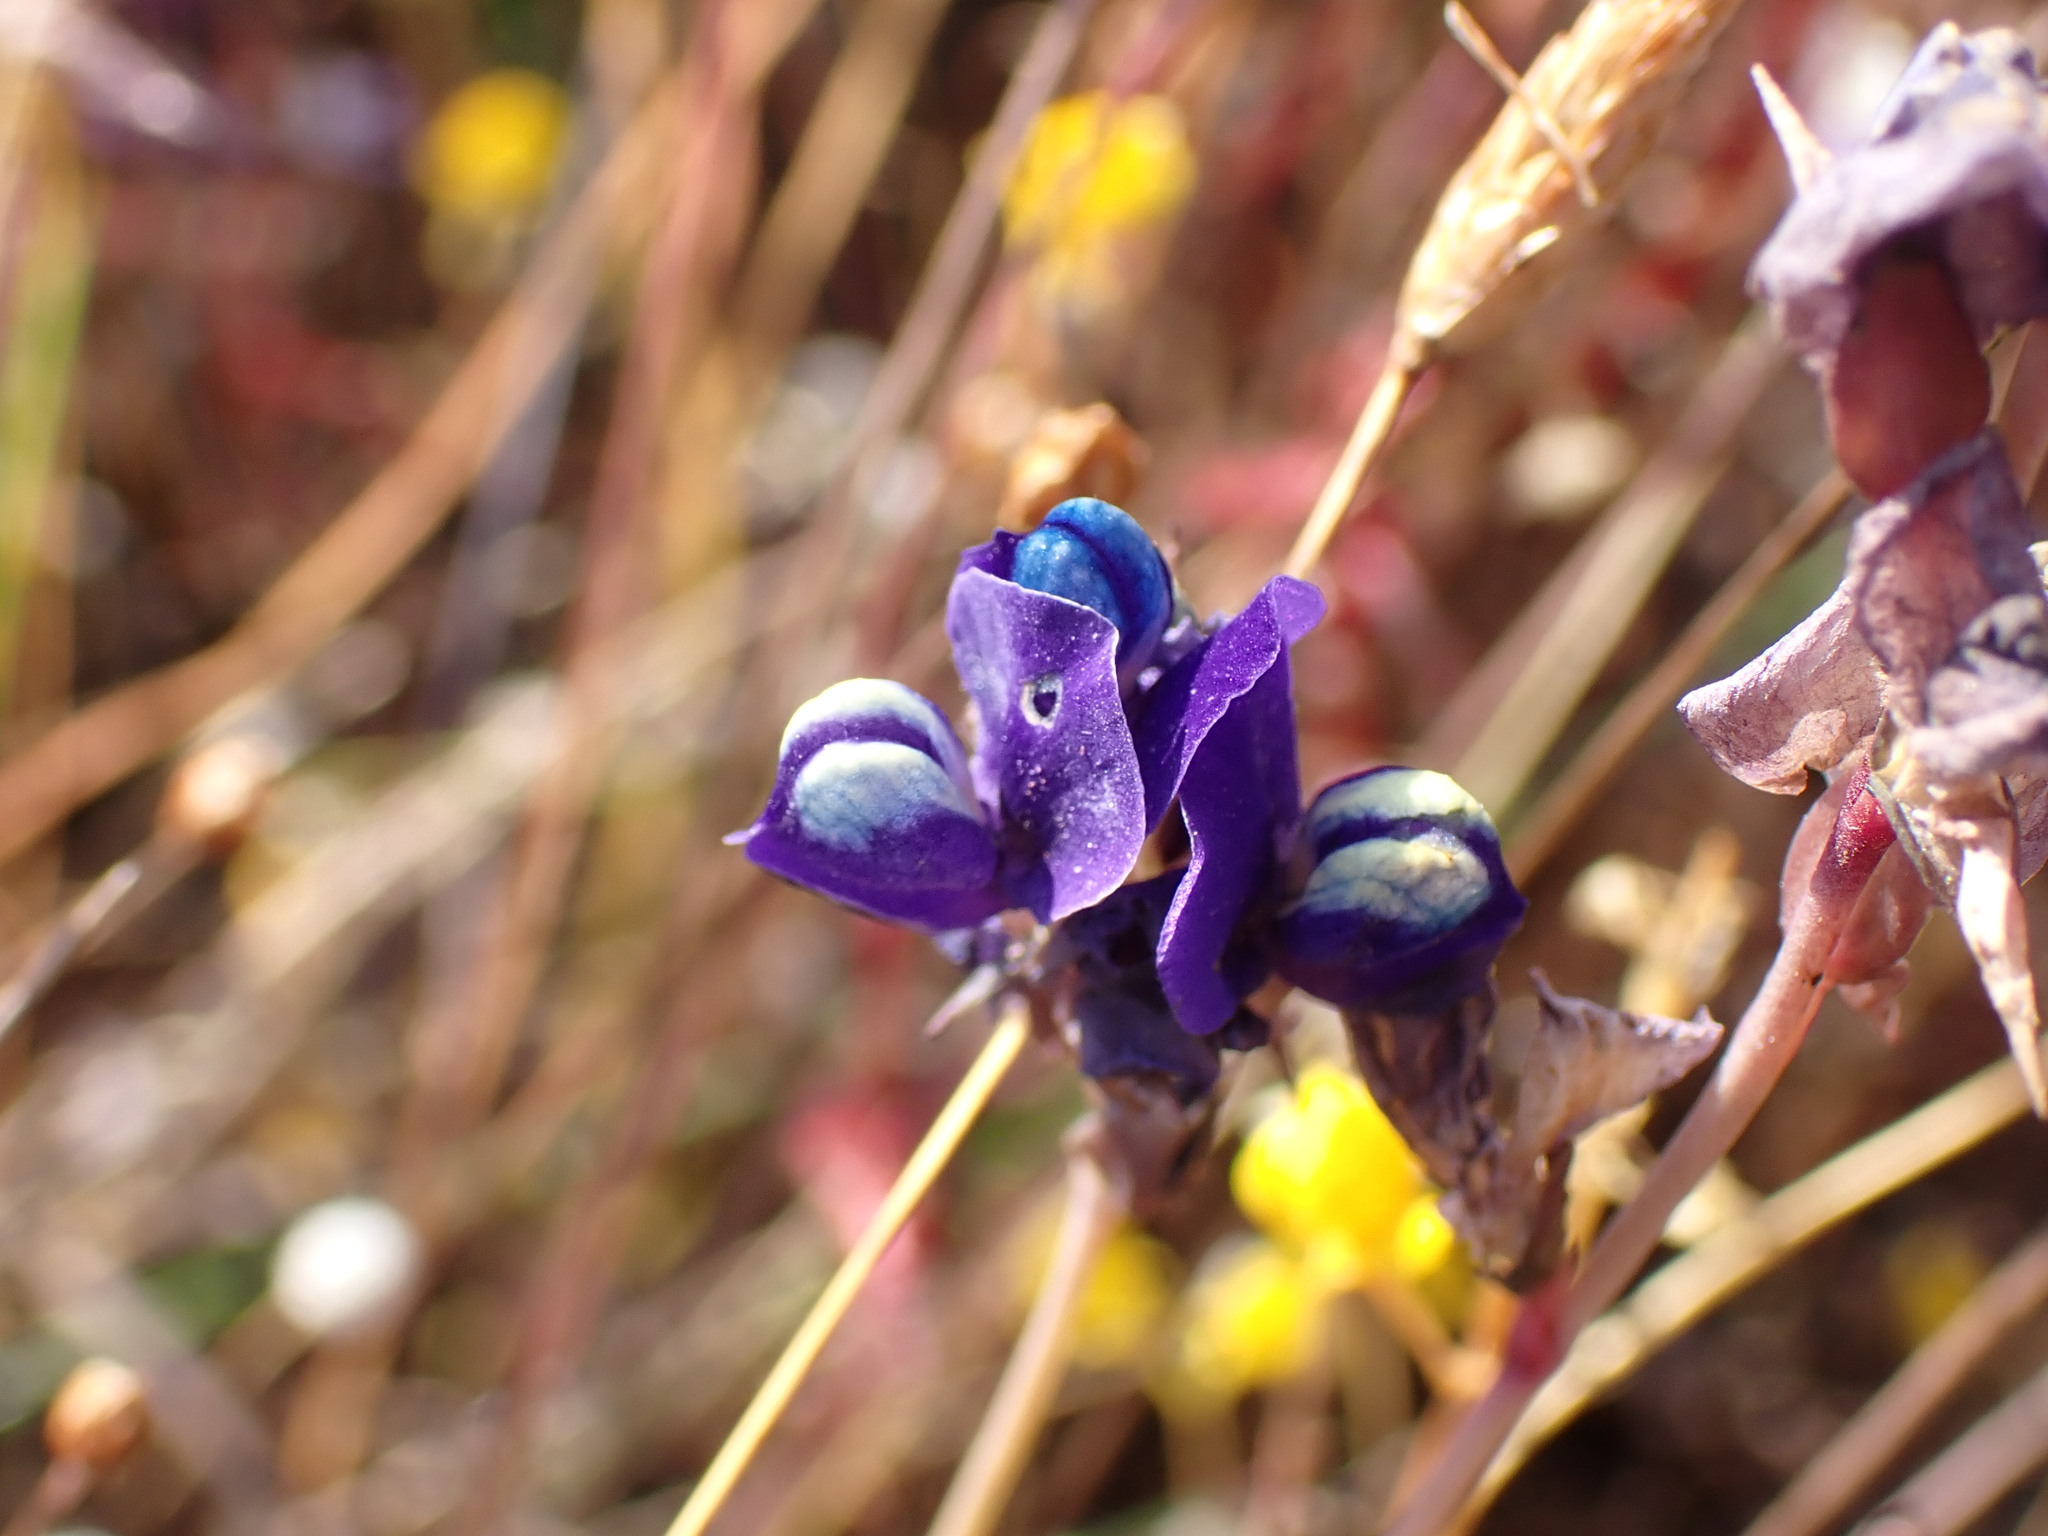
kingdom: Plantae
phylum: Tracheophyta
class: Magnoliopsida
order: Lamiales
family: Lentibulariaceae
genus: Utricularia
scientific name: Utricularia delphinioides
